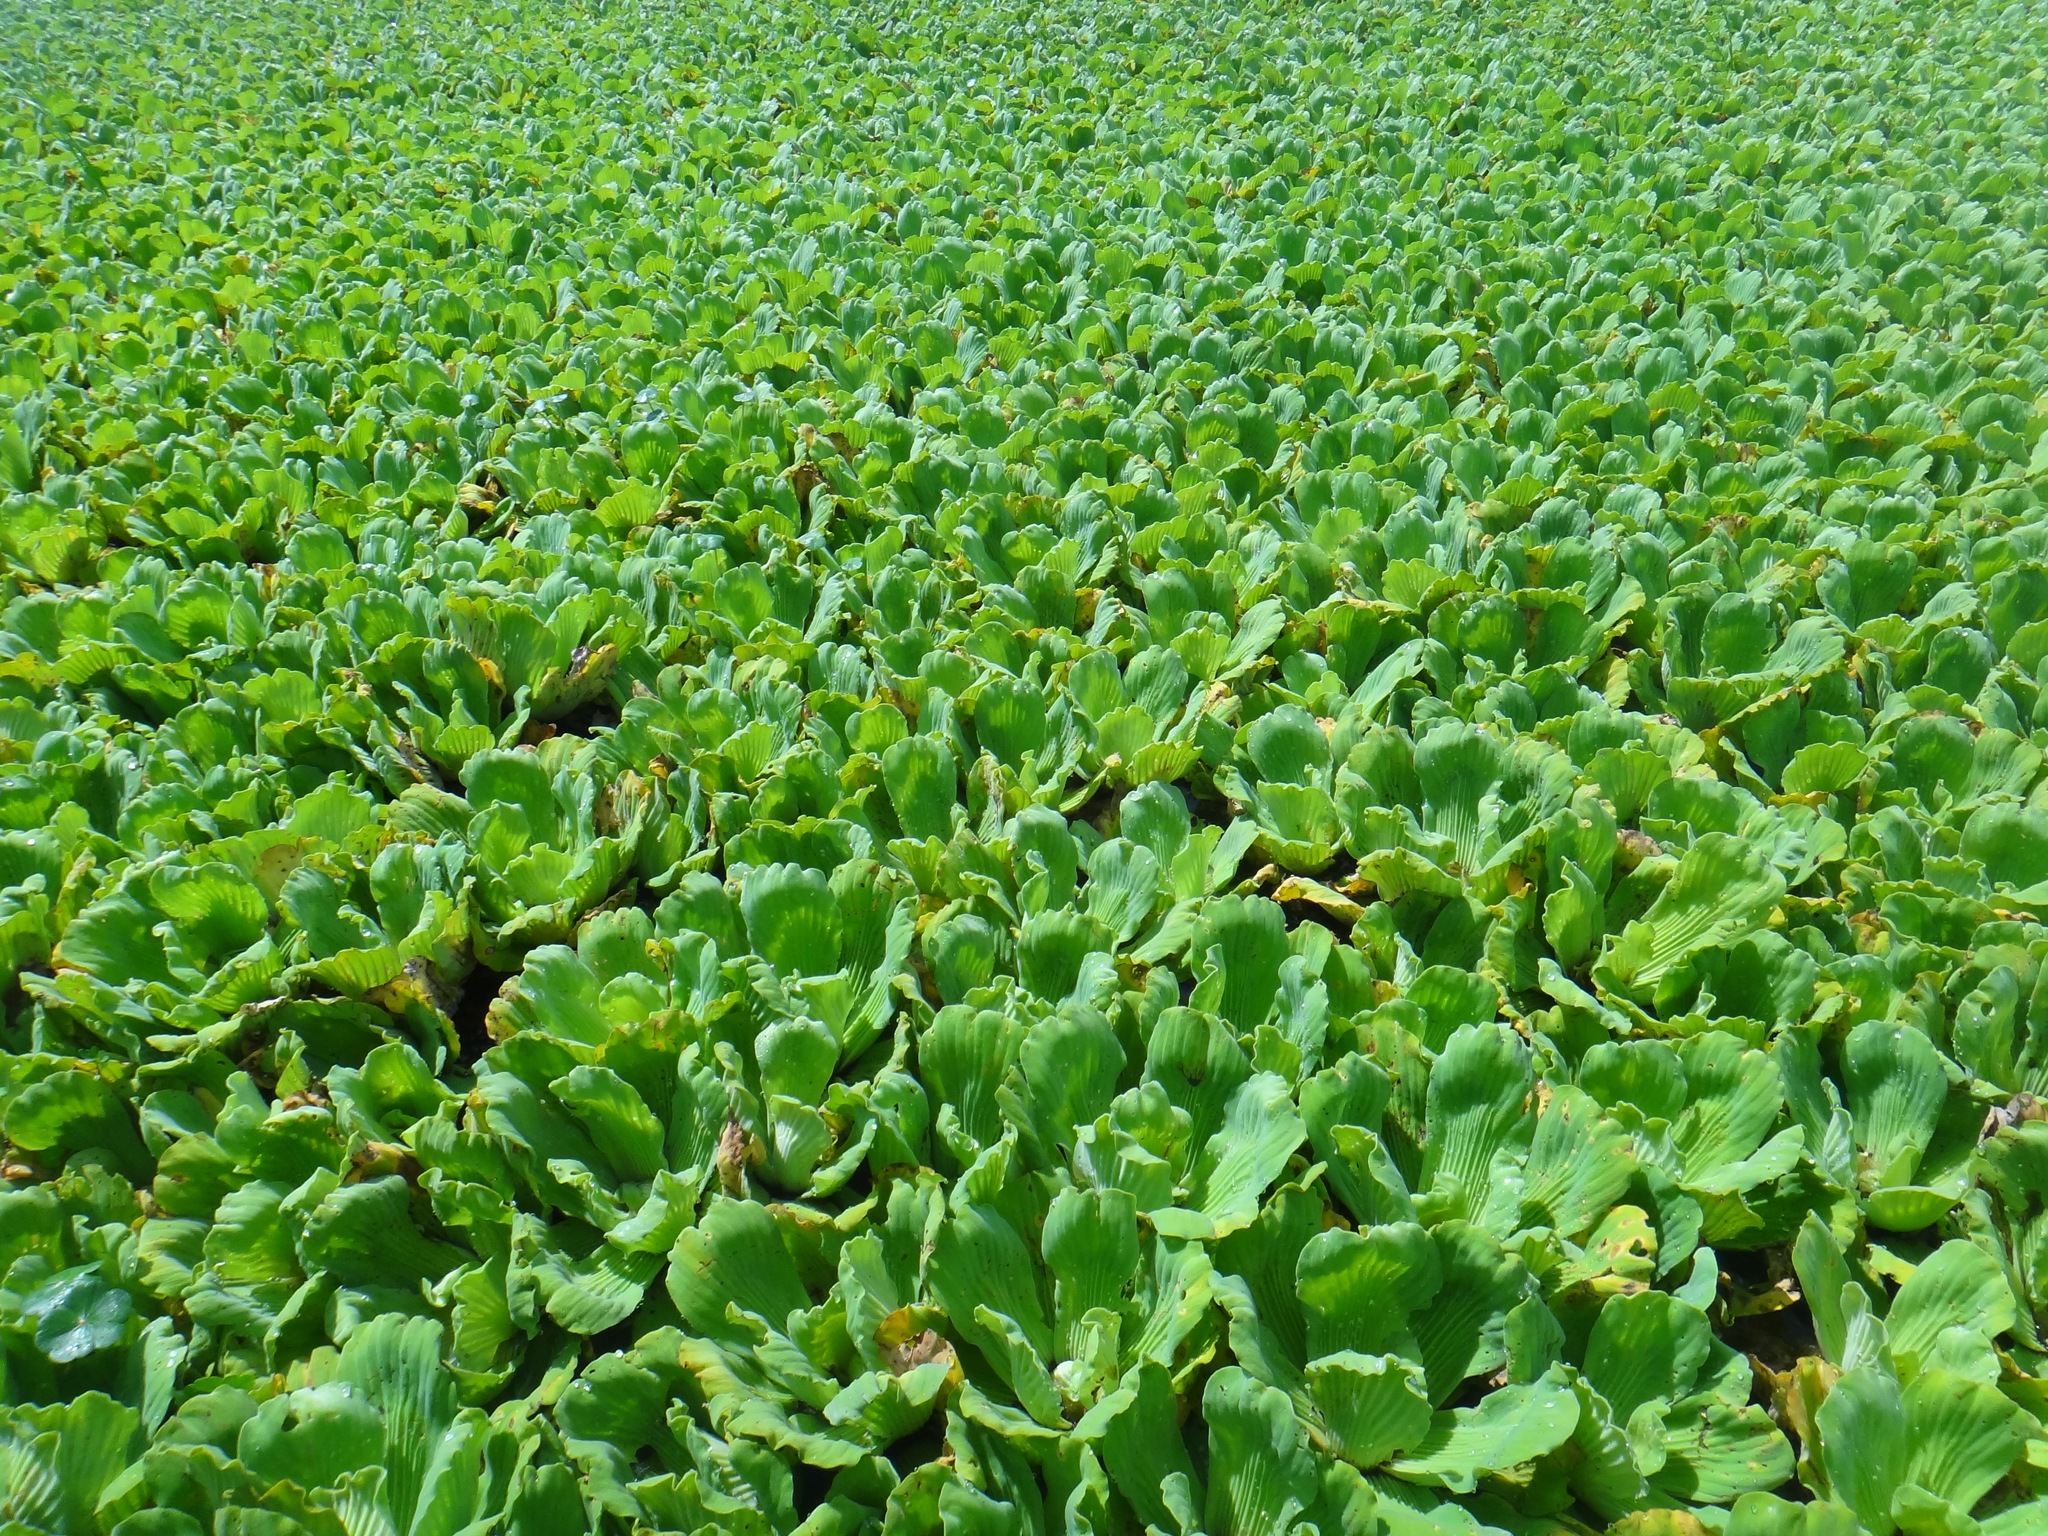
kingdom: Plantae
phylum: Tracheophyta
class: Liliopsida
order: Alismatales
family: Araceae
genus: Pistia
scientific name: Pistia stratiotes
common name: Water lettuce
